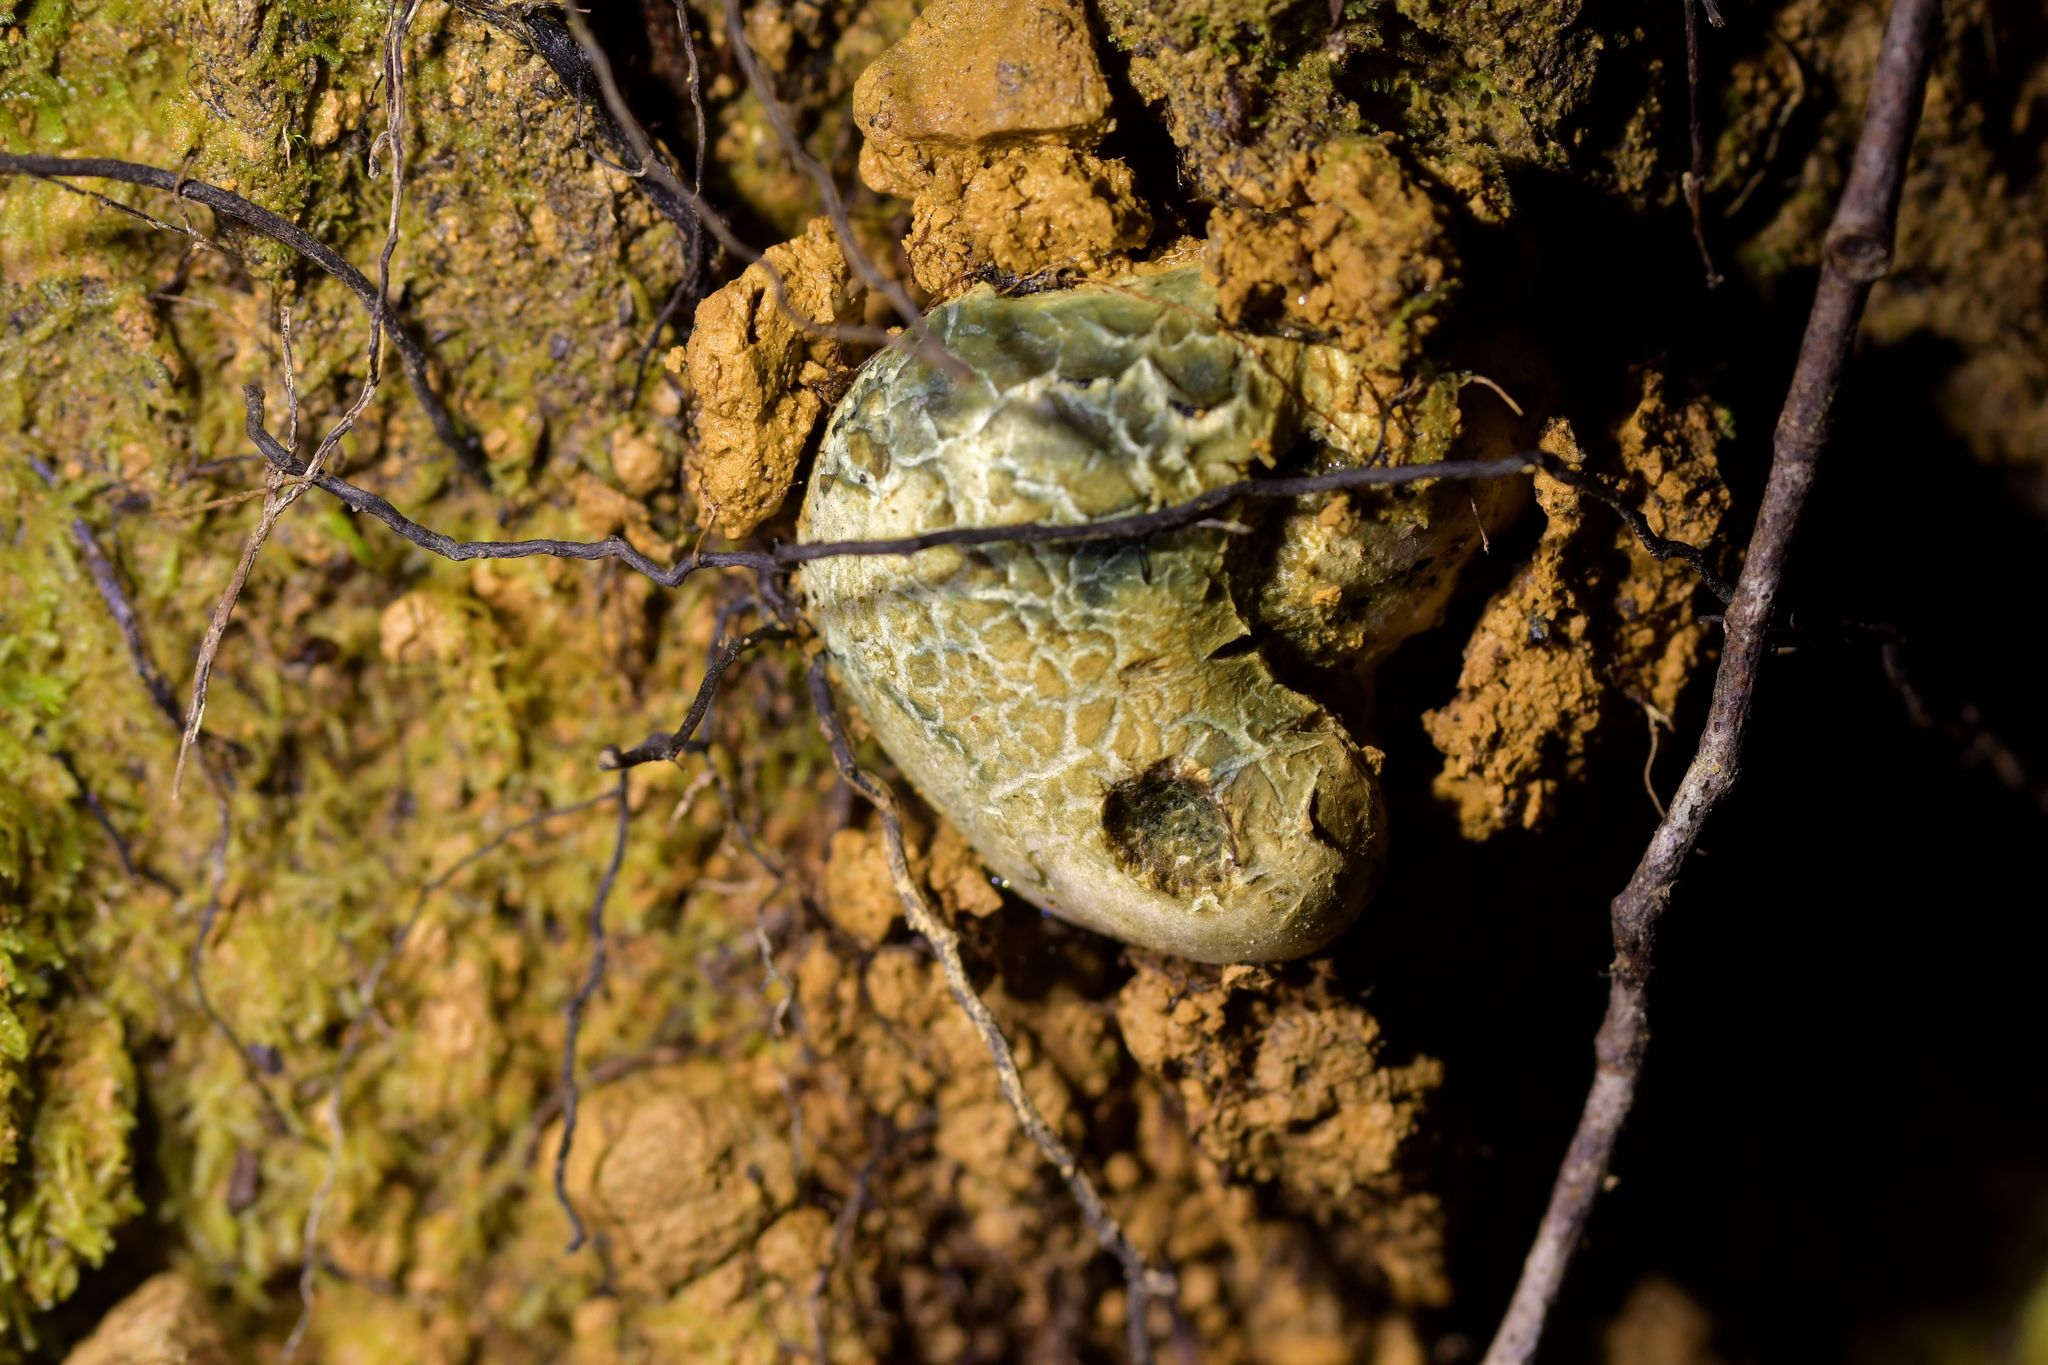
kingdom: Fungi
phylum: Basidiomycota
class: Agaricomycetes
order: Boletales
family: Boletaceae
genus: Leccinum
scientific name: Leccinum pachyderme
